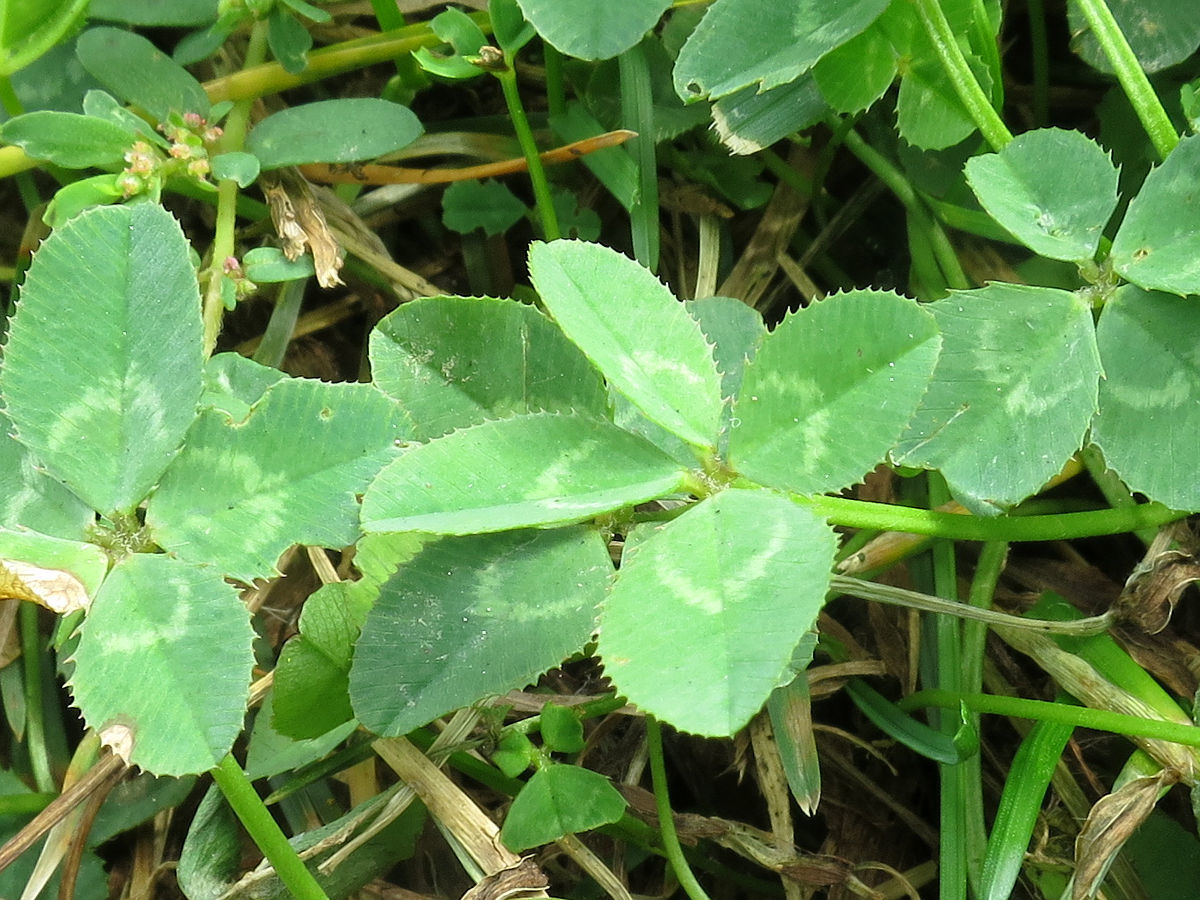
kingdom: Plantae
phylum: Tracheophyta
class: Magnoliopsida
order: Fabales
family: Fabaceae
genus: Trifolium
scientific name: Trifolium repens
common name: White clover
